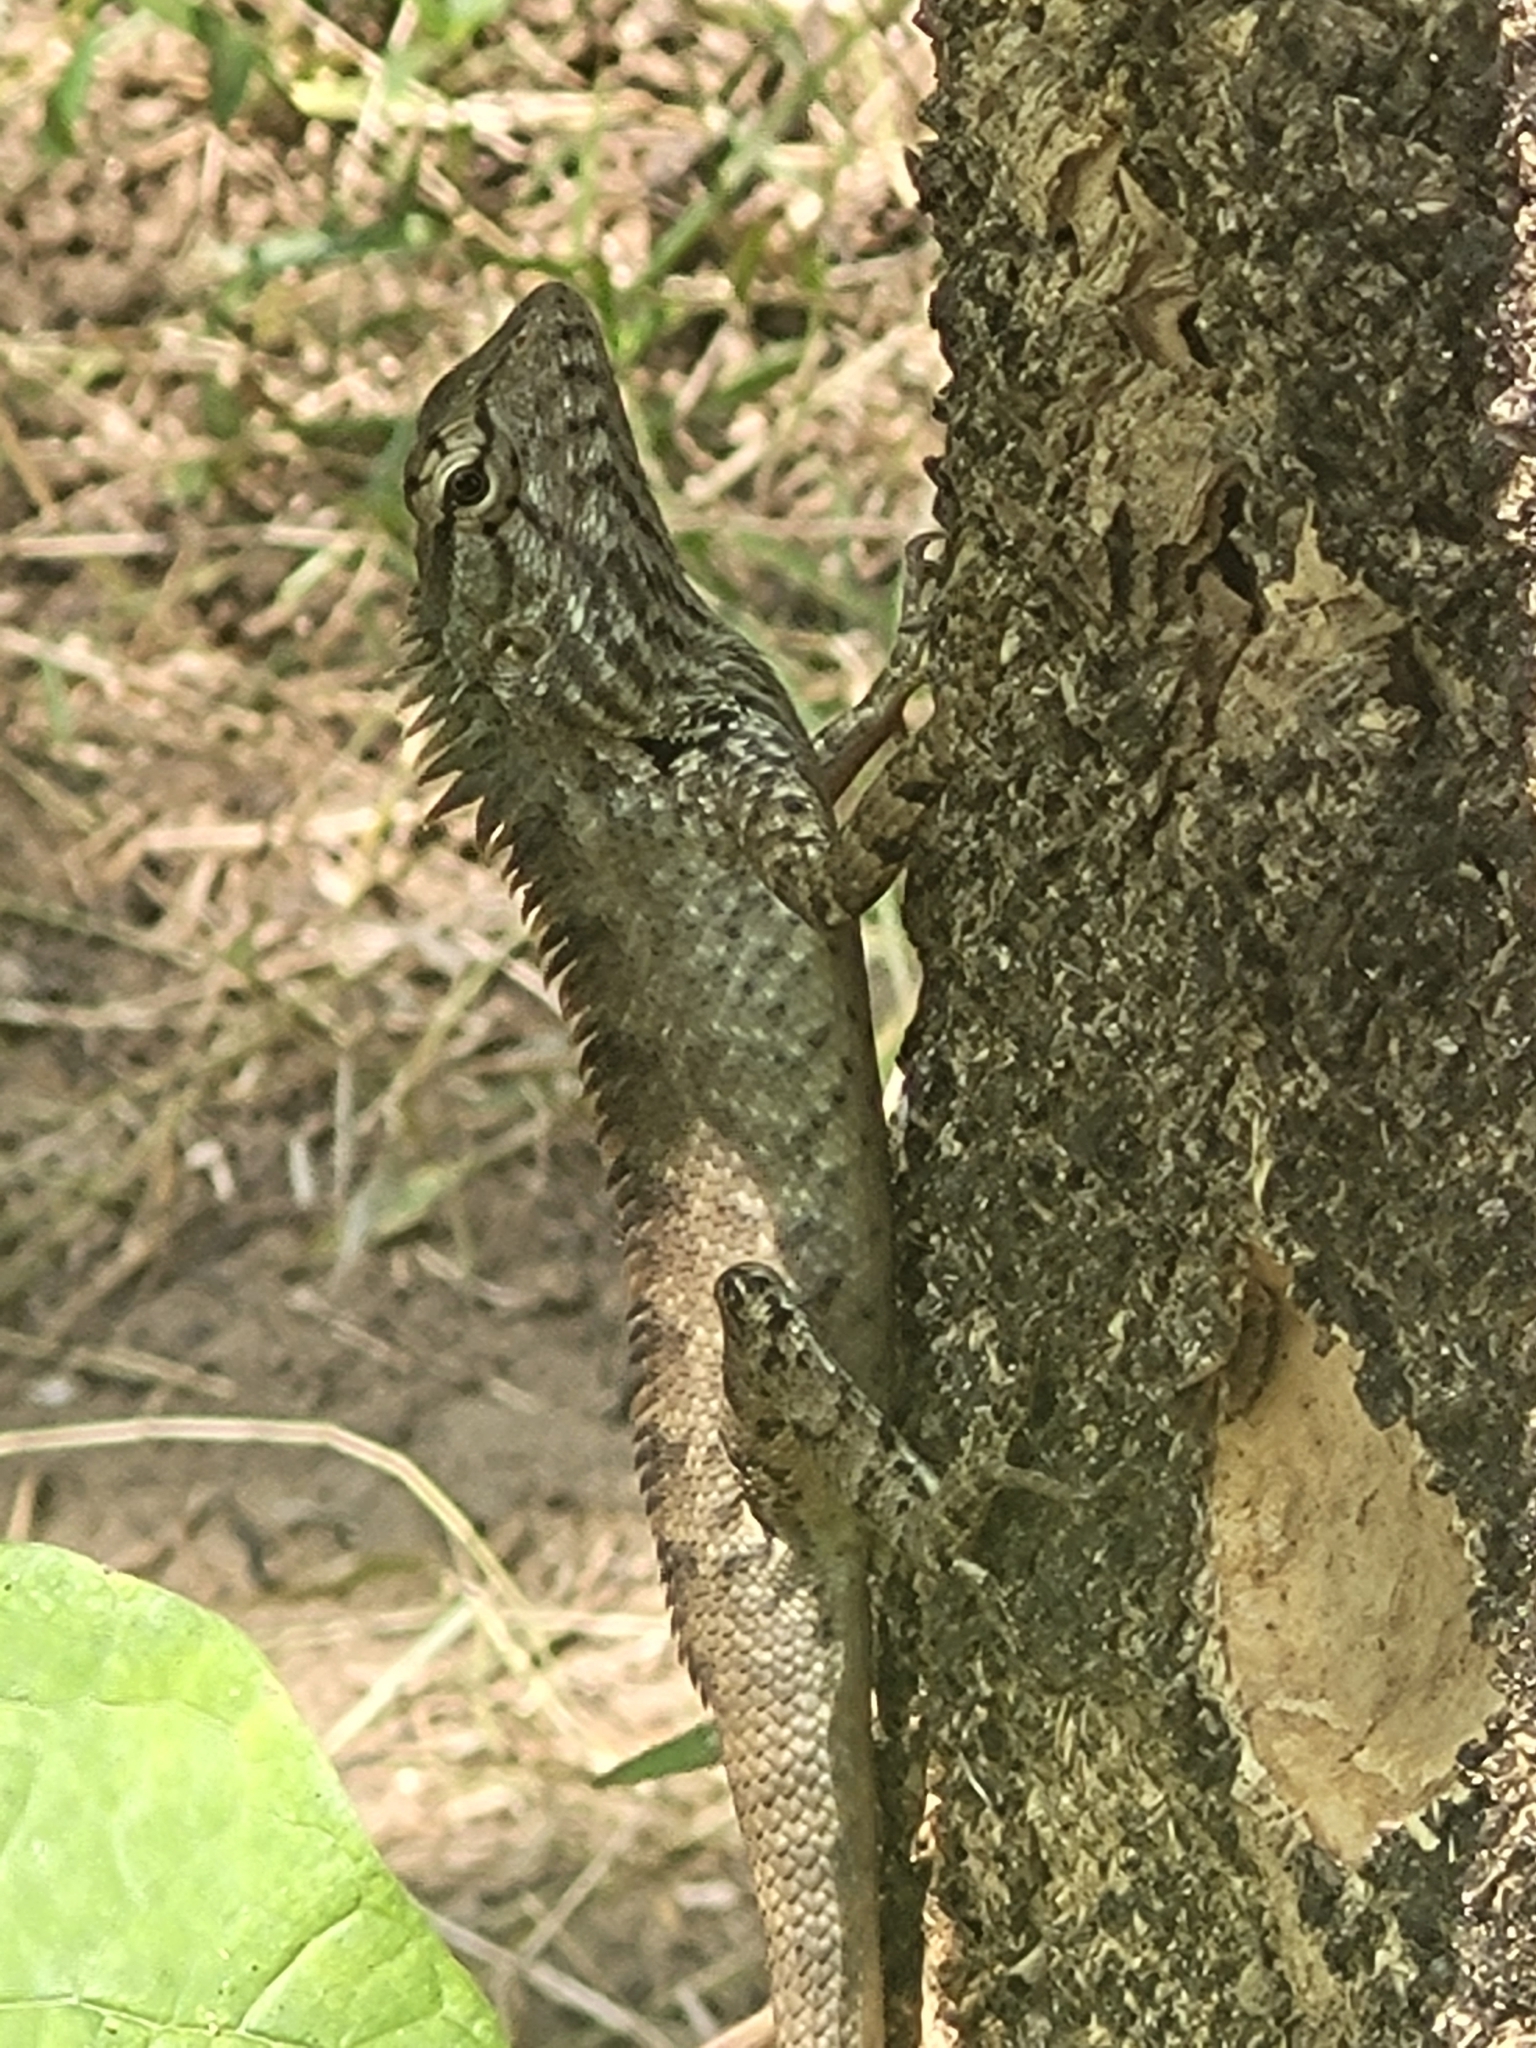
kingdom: Animalia
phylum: Chordata
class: Squamata
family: Agamidae
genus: Calotes
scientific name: Calotes versicolor
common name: Oriental garden lizard
